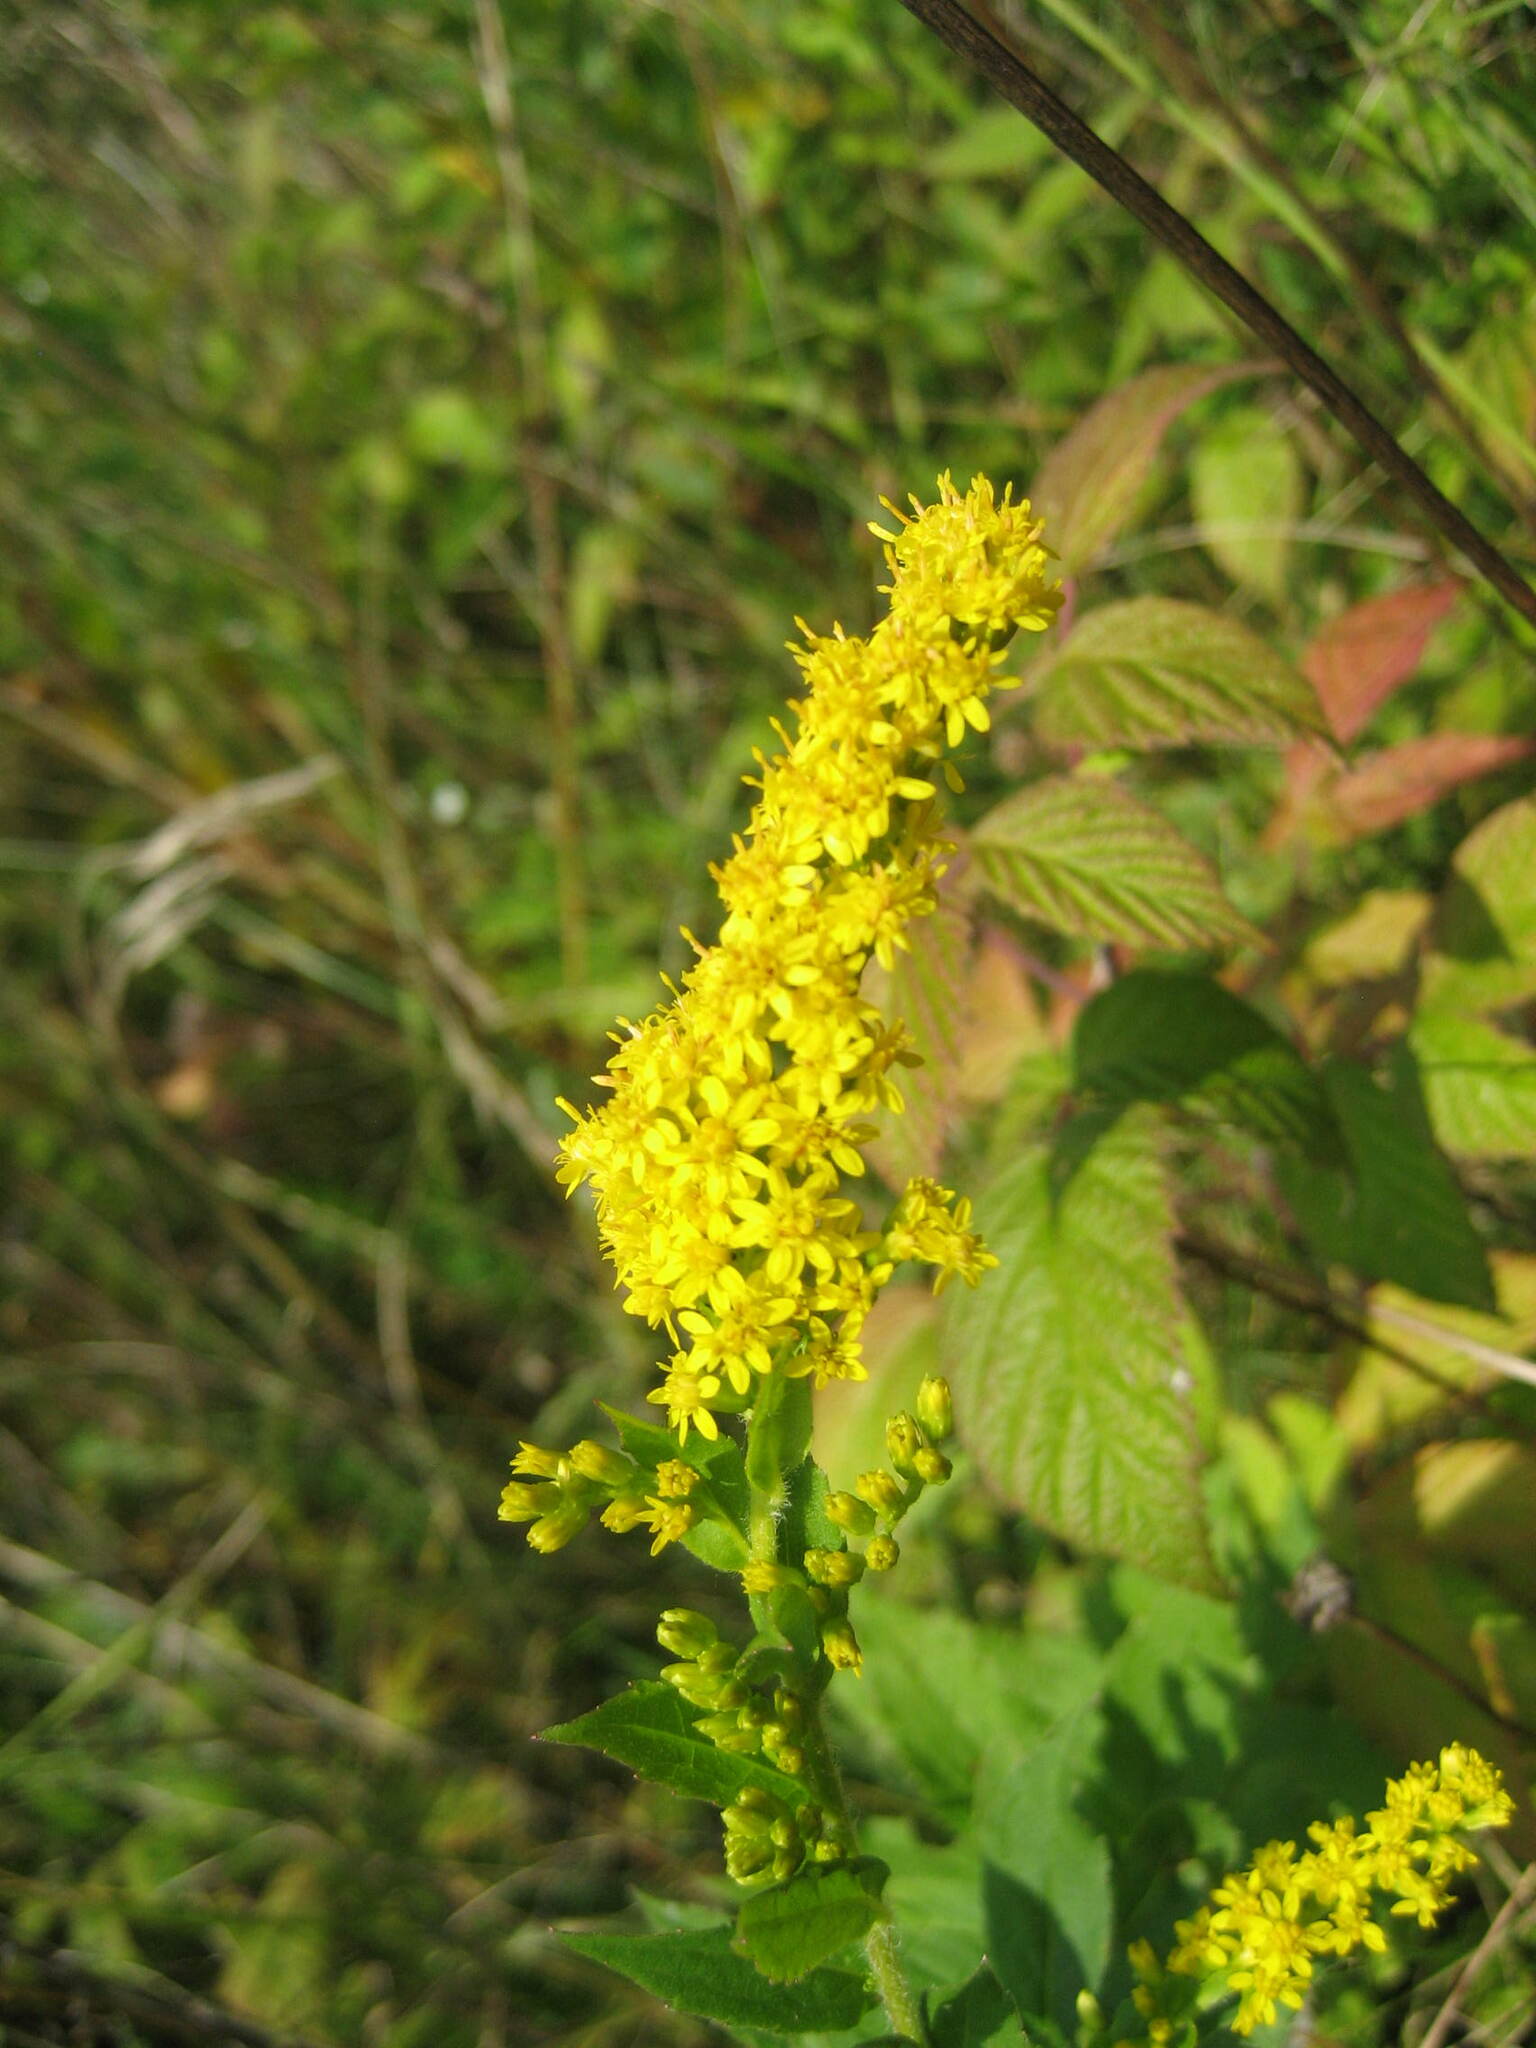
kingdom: Plantae
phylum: Tracheophyta
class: Magnoliopsida
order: Asterales
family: Asteraceae
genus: Solidago
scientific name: Solidago rugosa
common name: Rough-stemmed goldenrod
